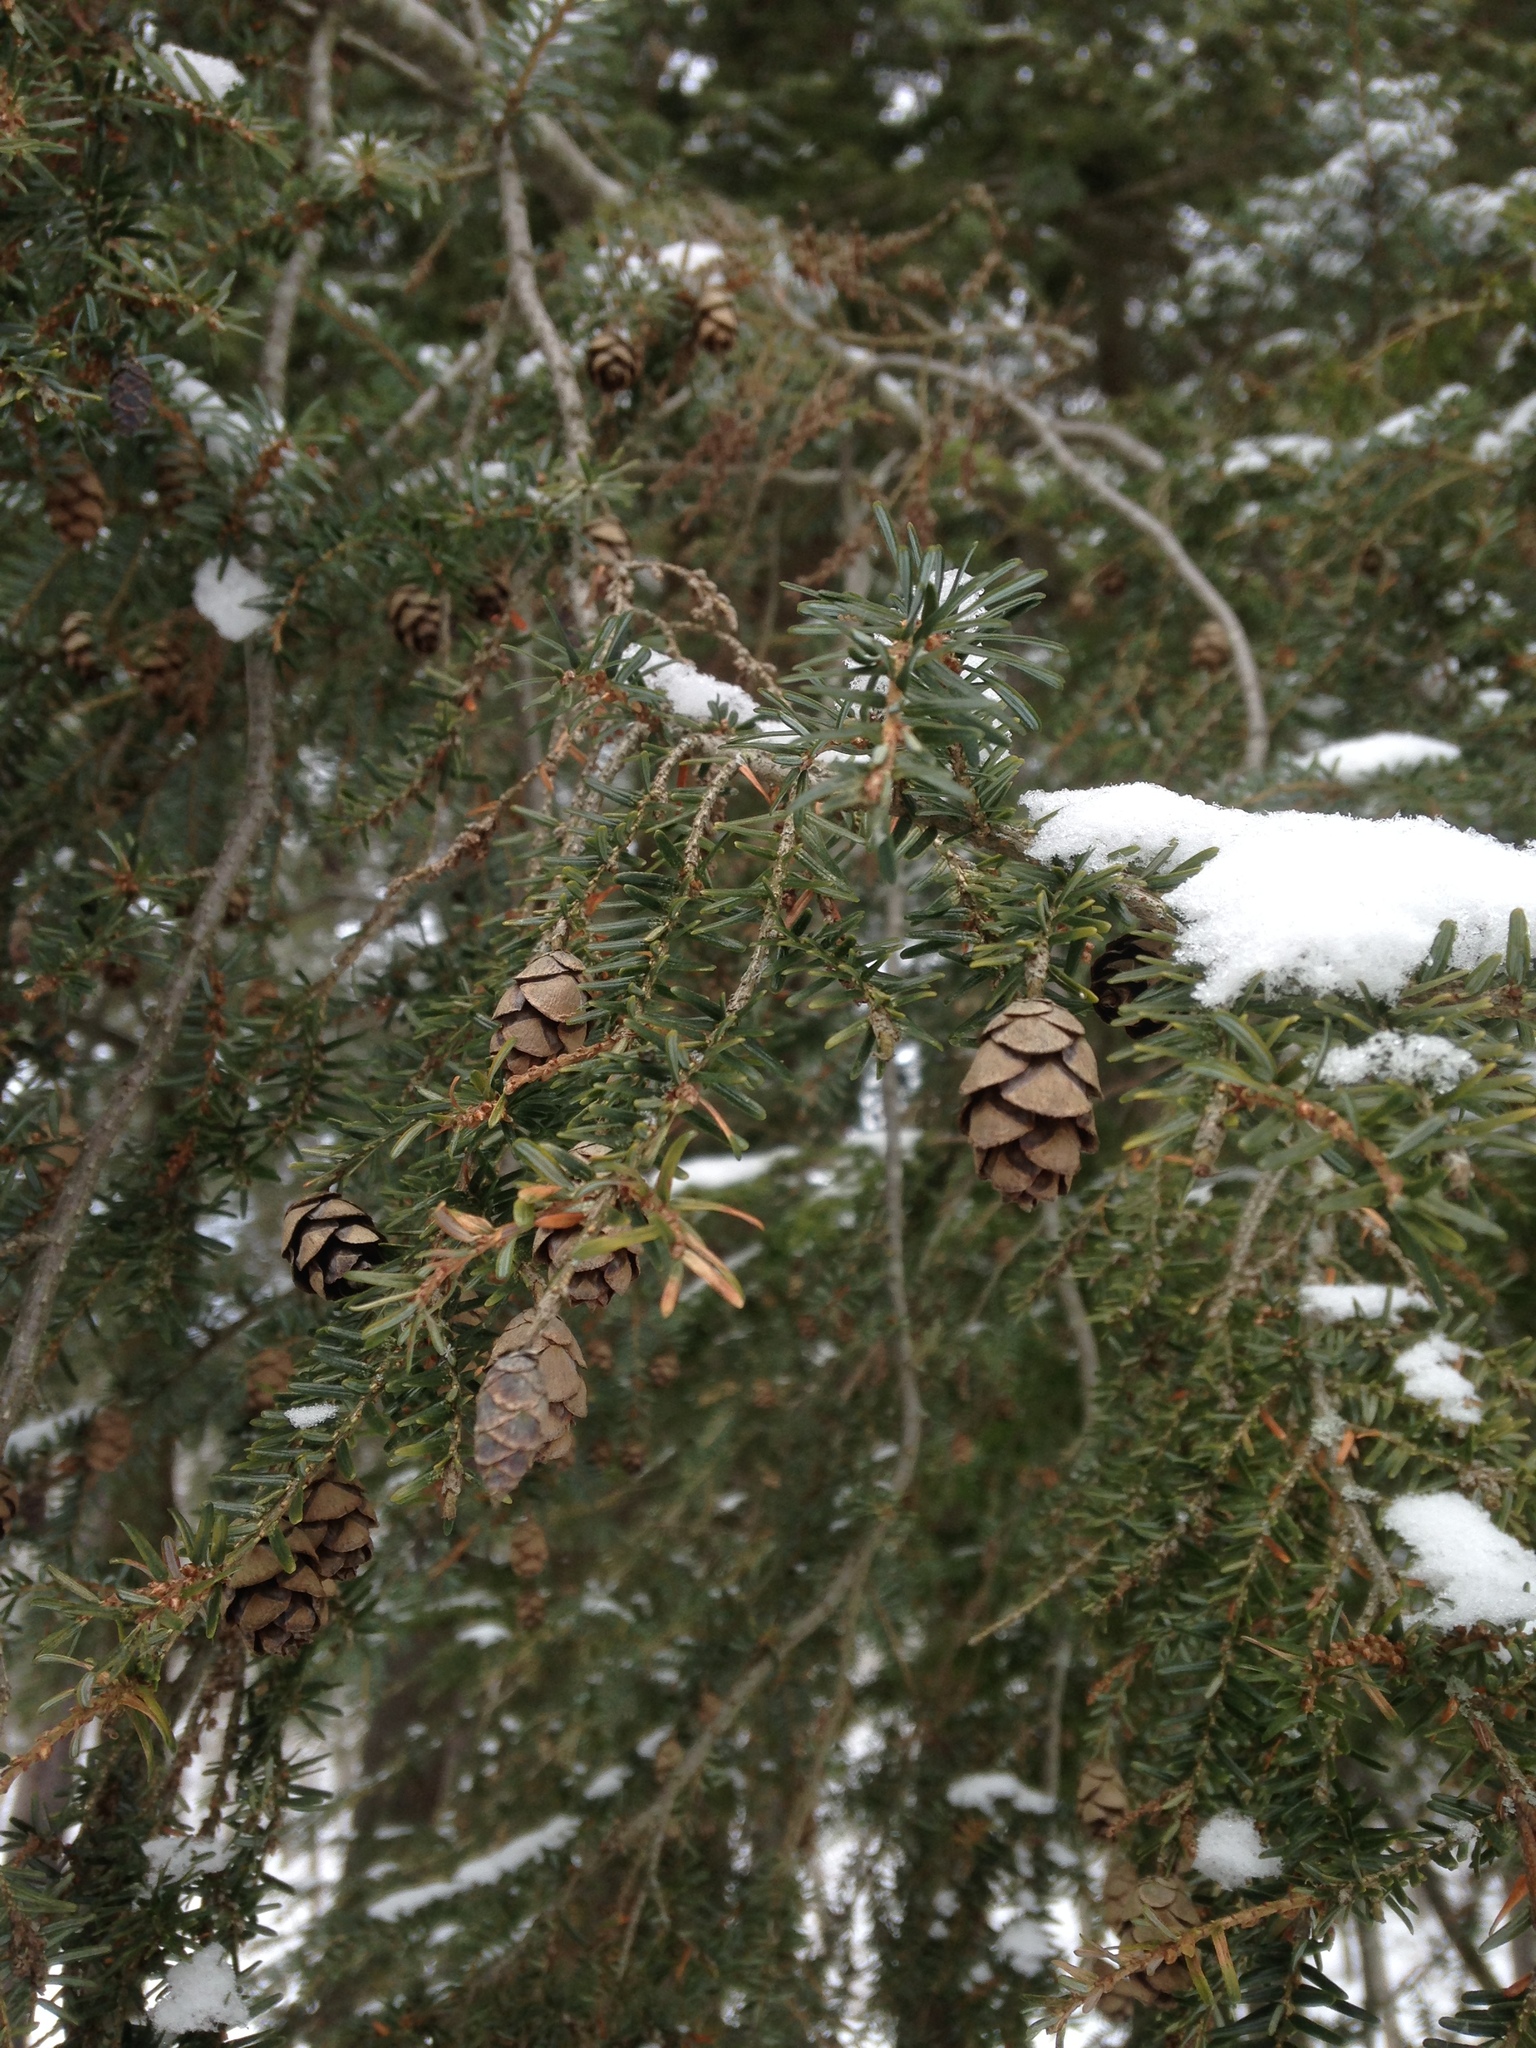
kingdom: Plantae
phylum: Tracheophyta
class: Pinopsida
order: Pinales
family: Pinaceae
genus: Tsuga
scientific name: Tsuga canadensis
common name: Eastern hemlock
